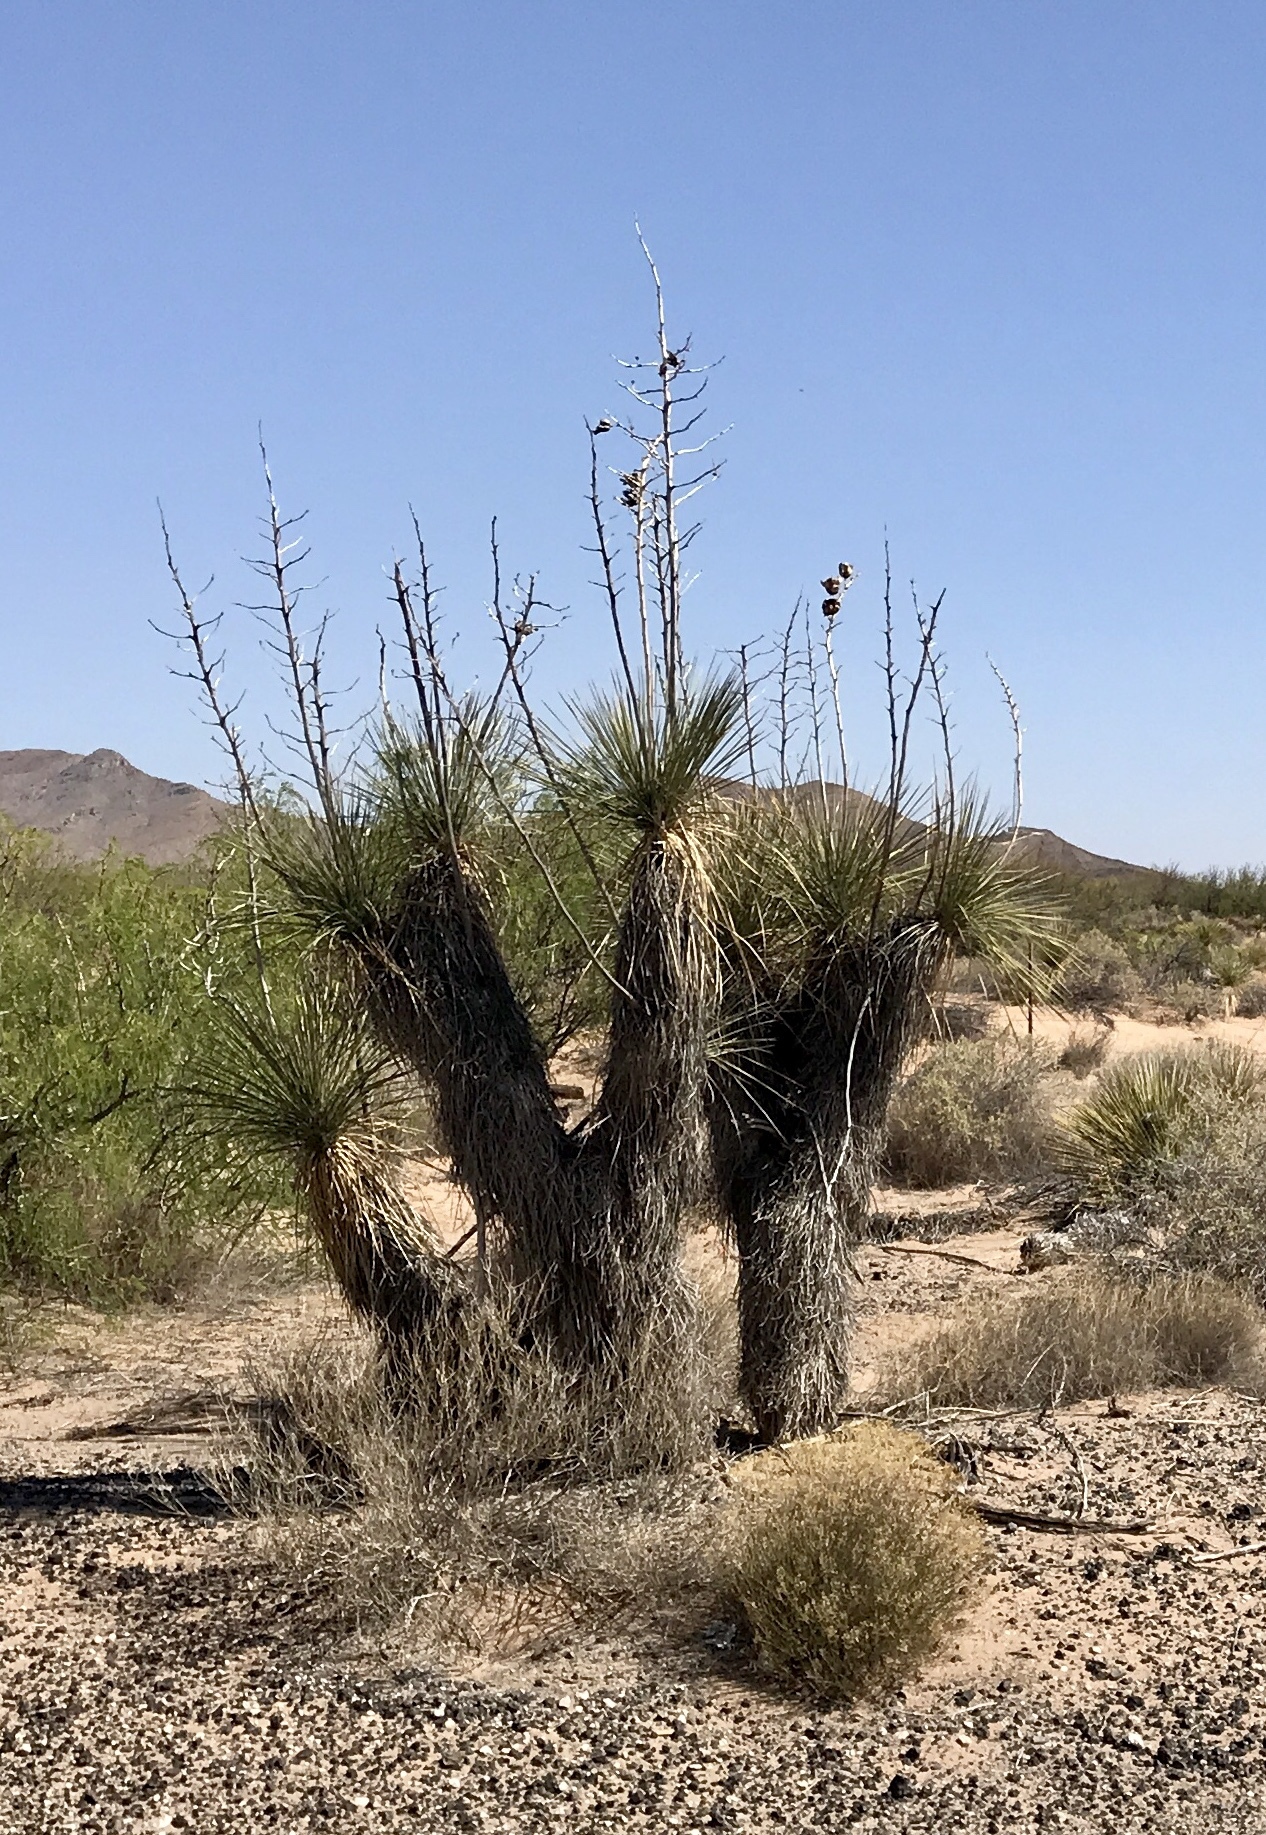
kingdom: Plantae
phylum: Tracheophyta
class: Liliopsida
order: Asparagales
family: Asparagaceae
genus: Yucca
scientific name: Yucca elata
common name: Palmella
